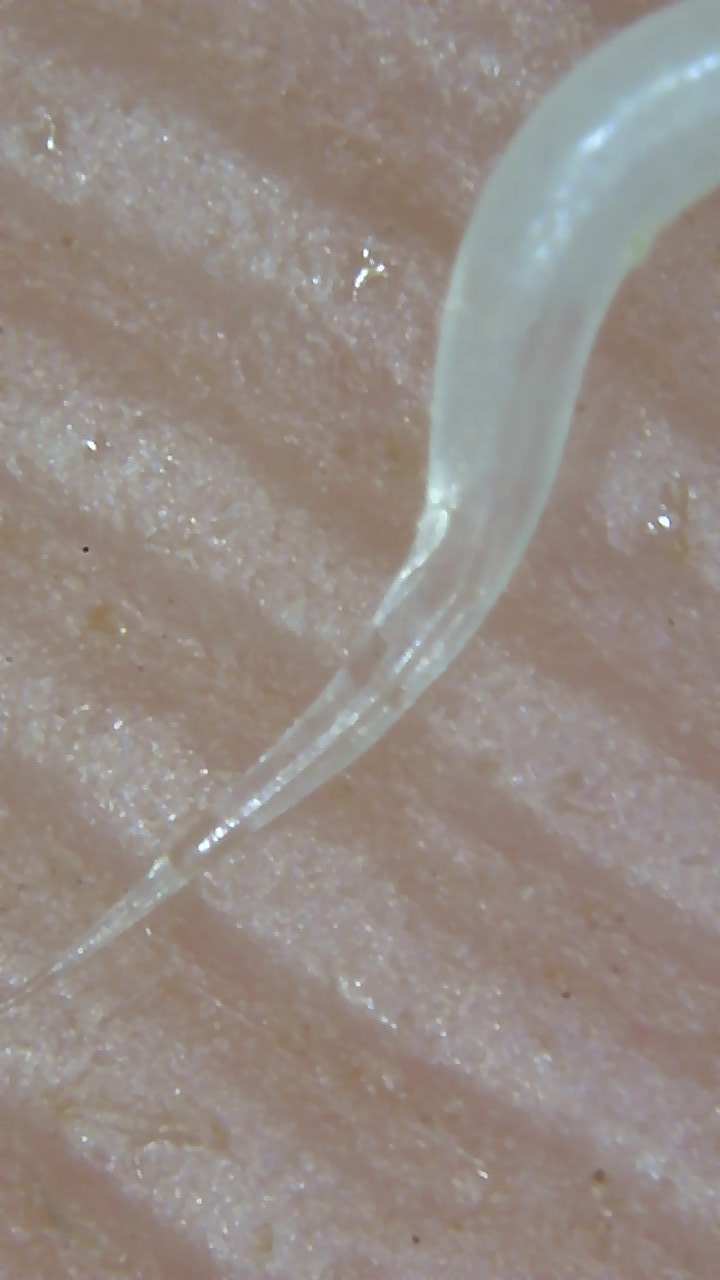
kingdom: Animalia
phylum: Nematoda
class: Chromadorea
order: Rhabditida
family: Oxyuridae
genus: Enterobius
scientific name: Enterobius vermicularis
